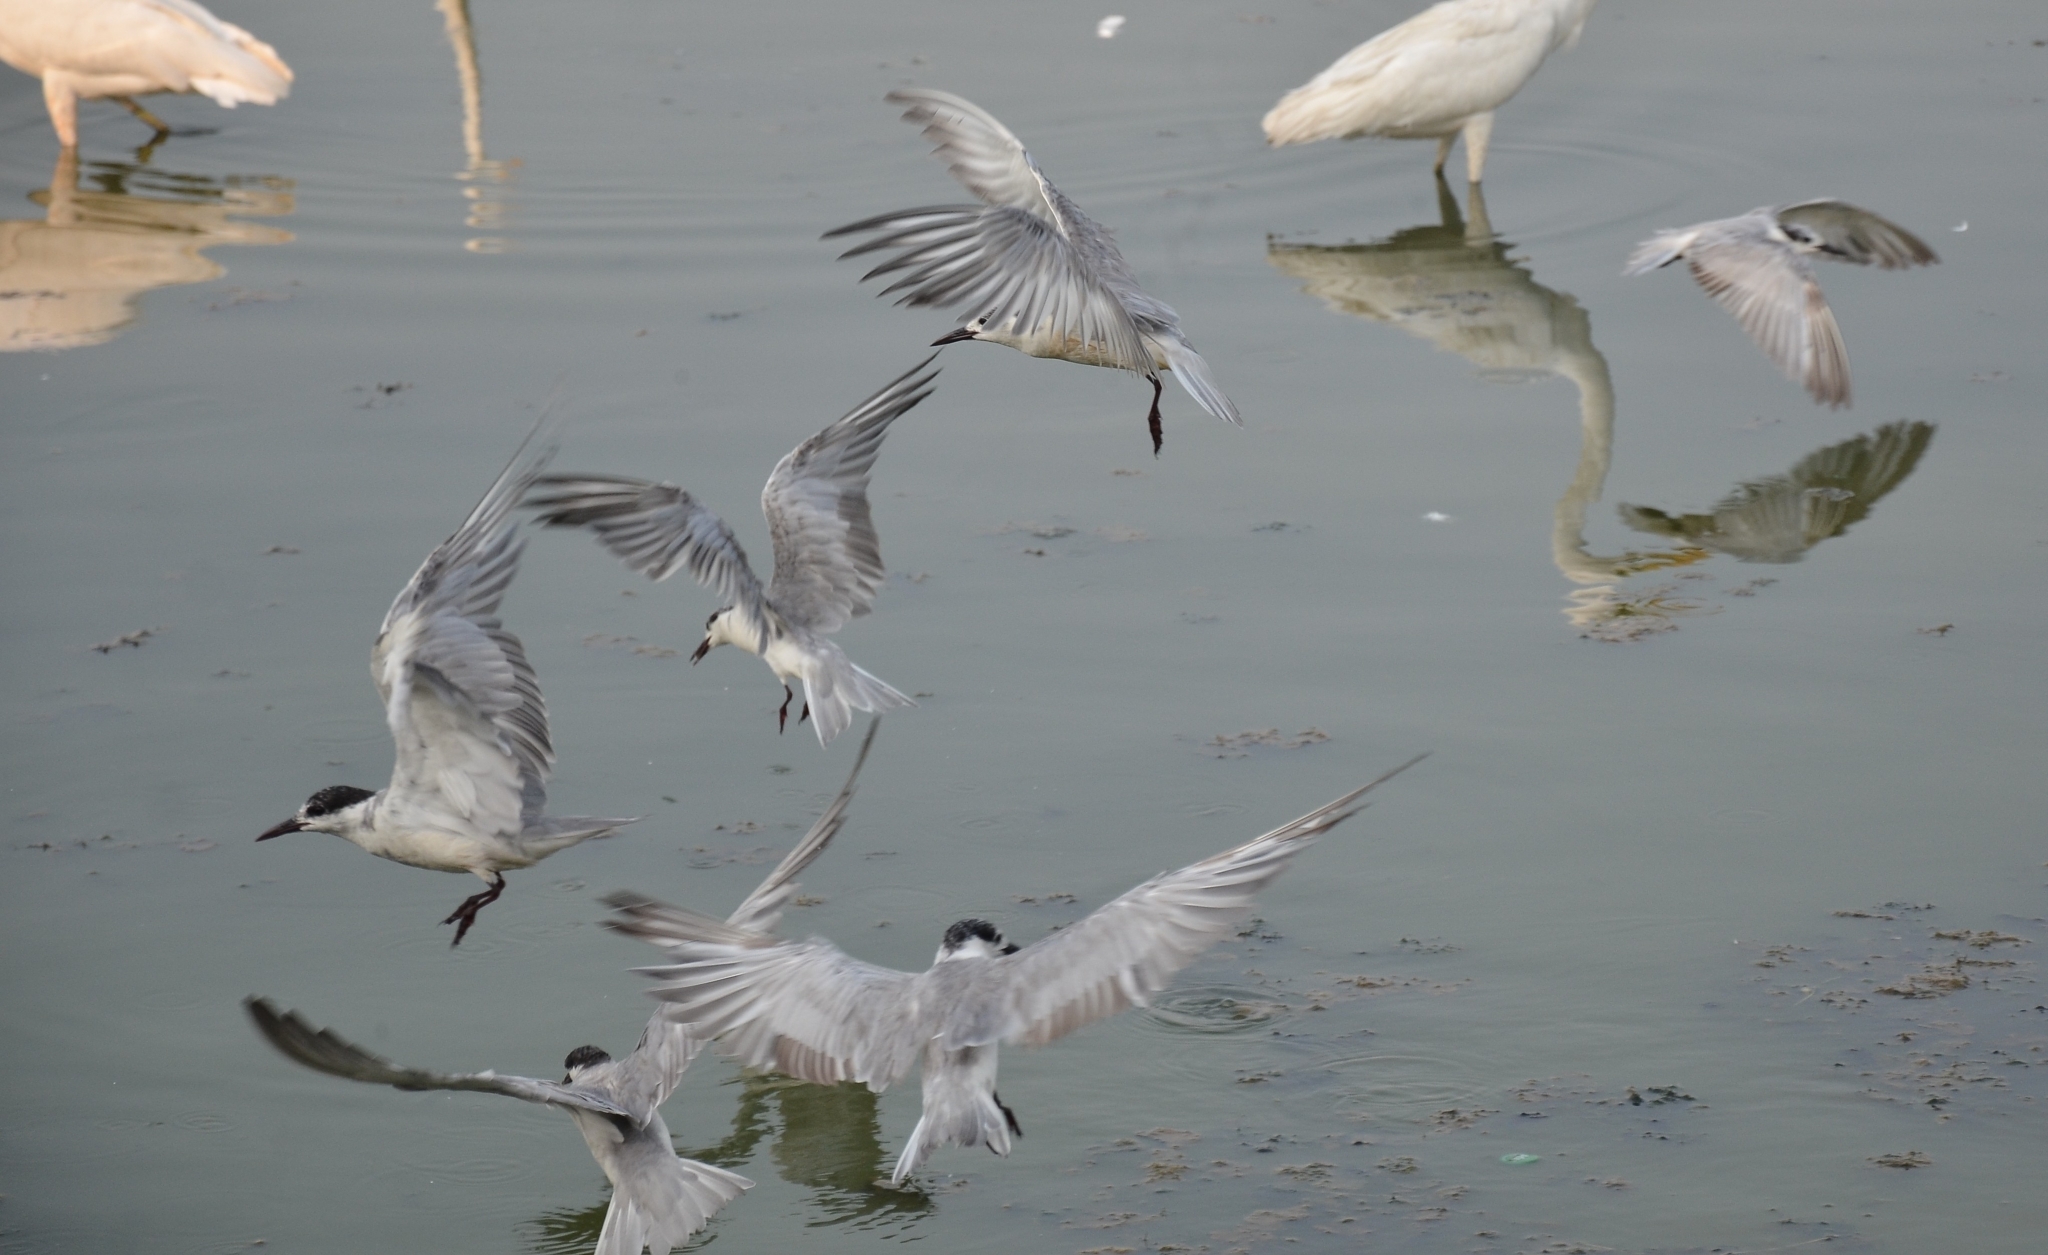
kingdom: Animalia
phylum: Chordata
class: Aves
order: Charadriiformes
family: Laridae
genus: Chlidonias
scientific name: Chlidonias hybrida
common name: Whiskered tern
